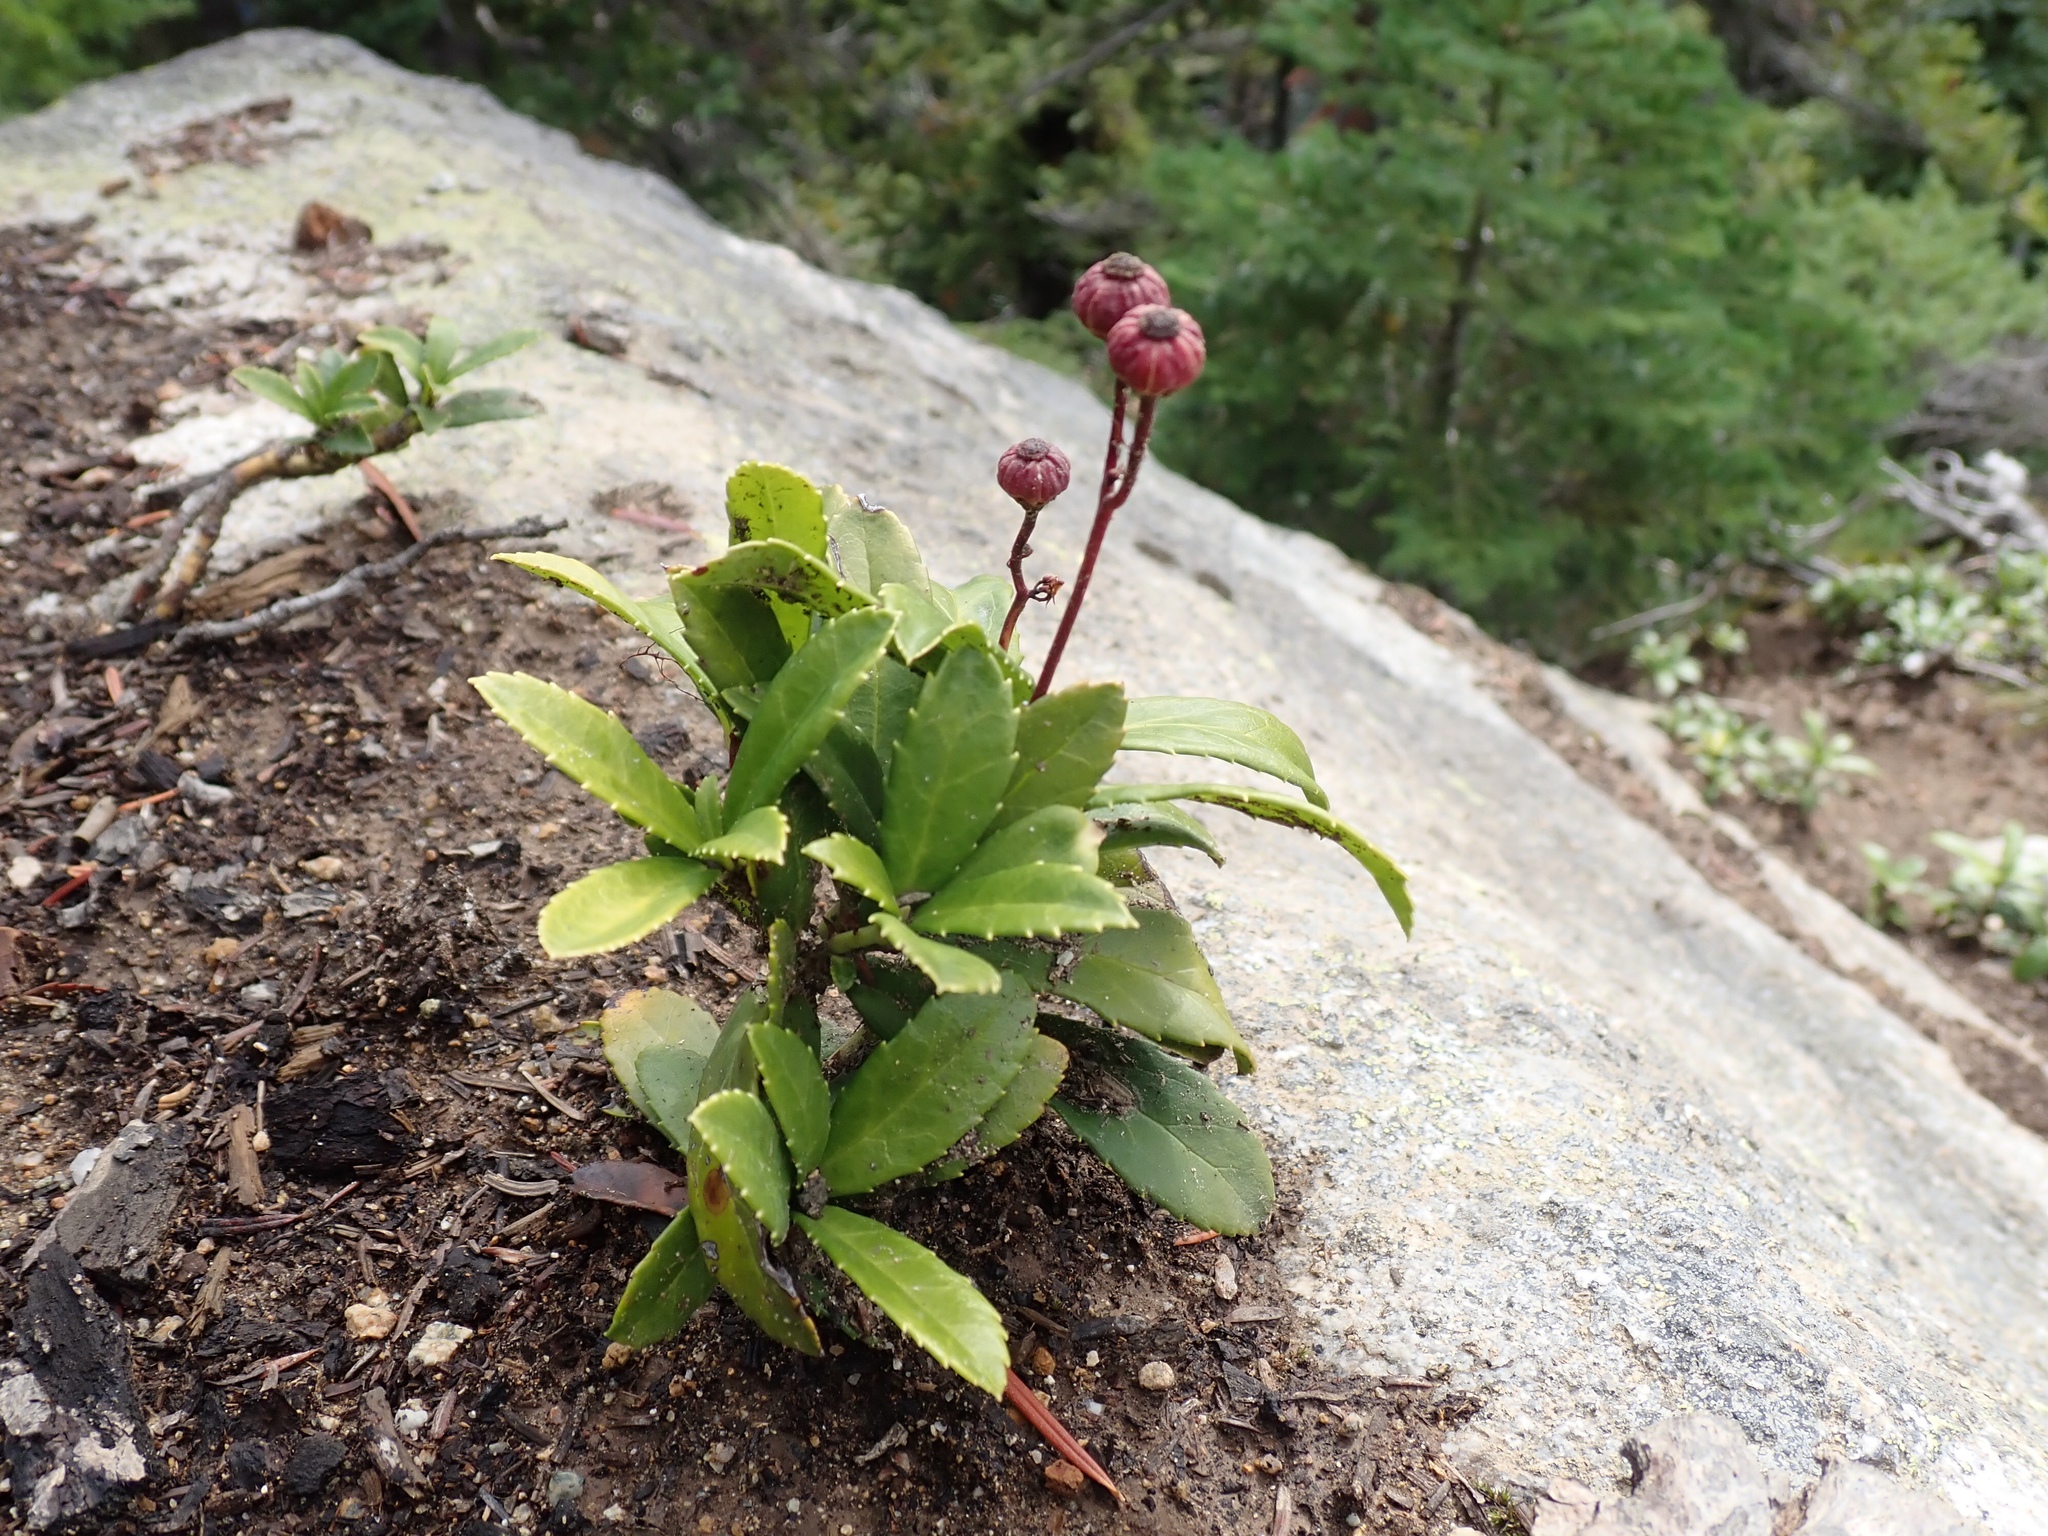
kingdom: Plantae
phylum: Tracheophyta
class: Magnoliopsida
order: Ericales
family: Ericaceae
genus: Chimaphila
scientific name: Chimaphila umbellata
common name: Pipsissewa
